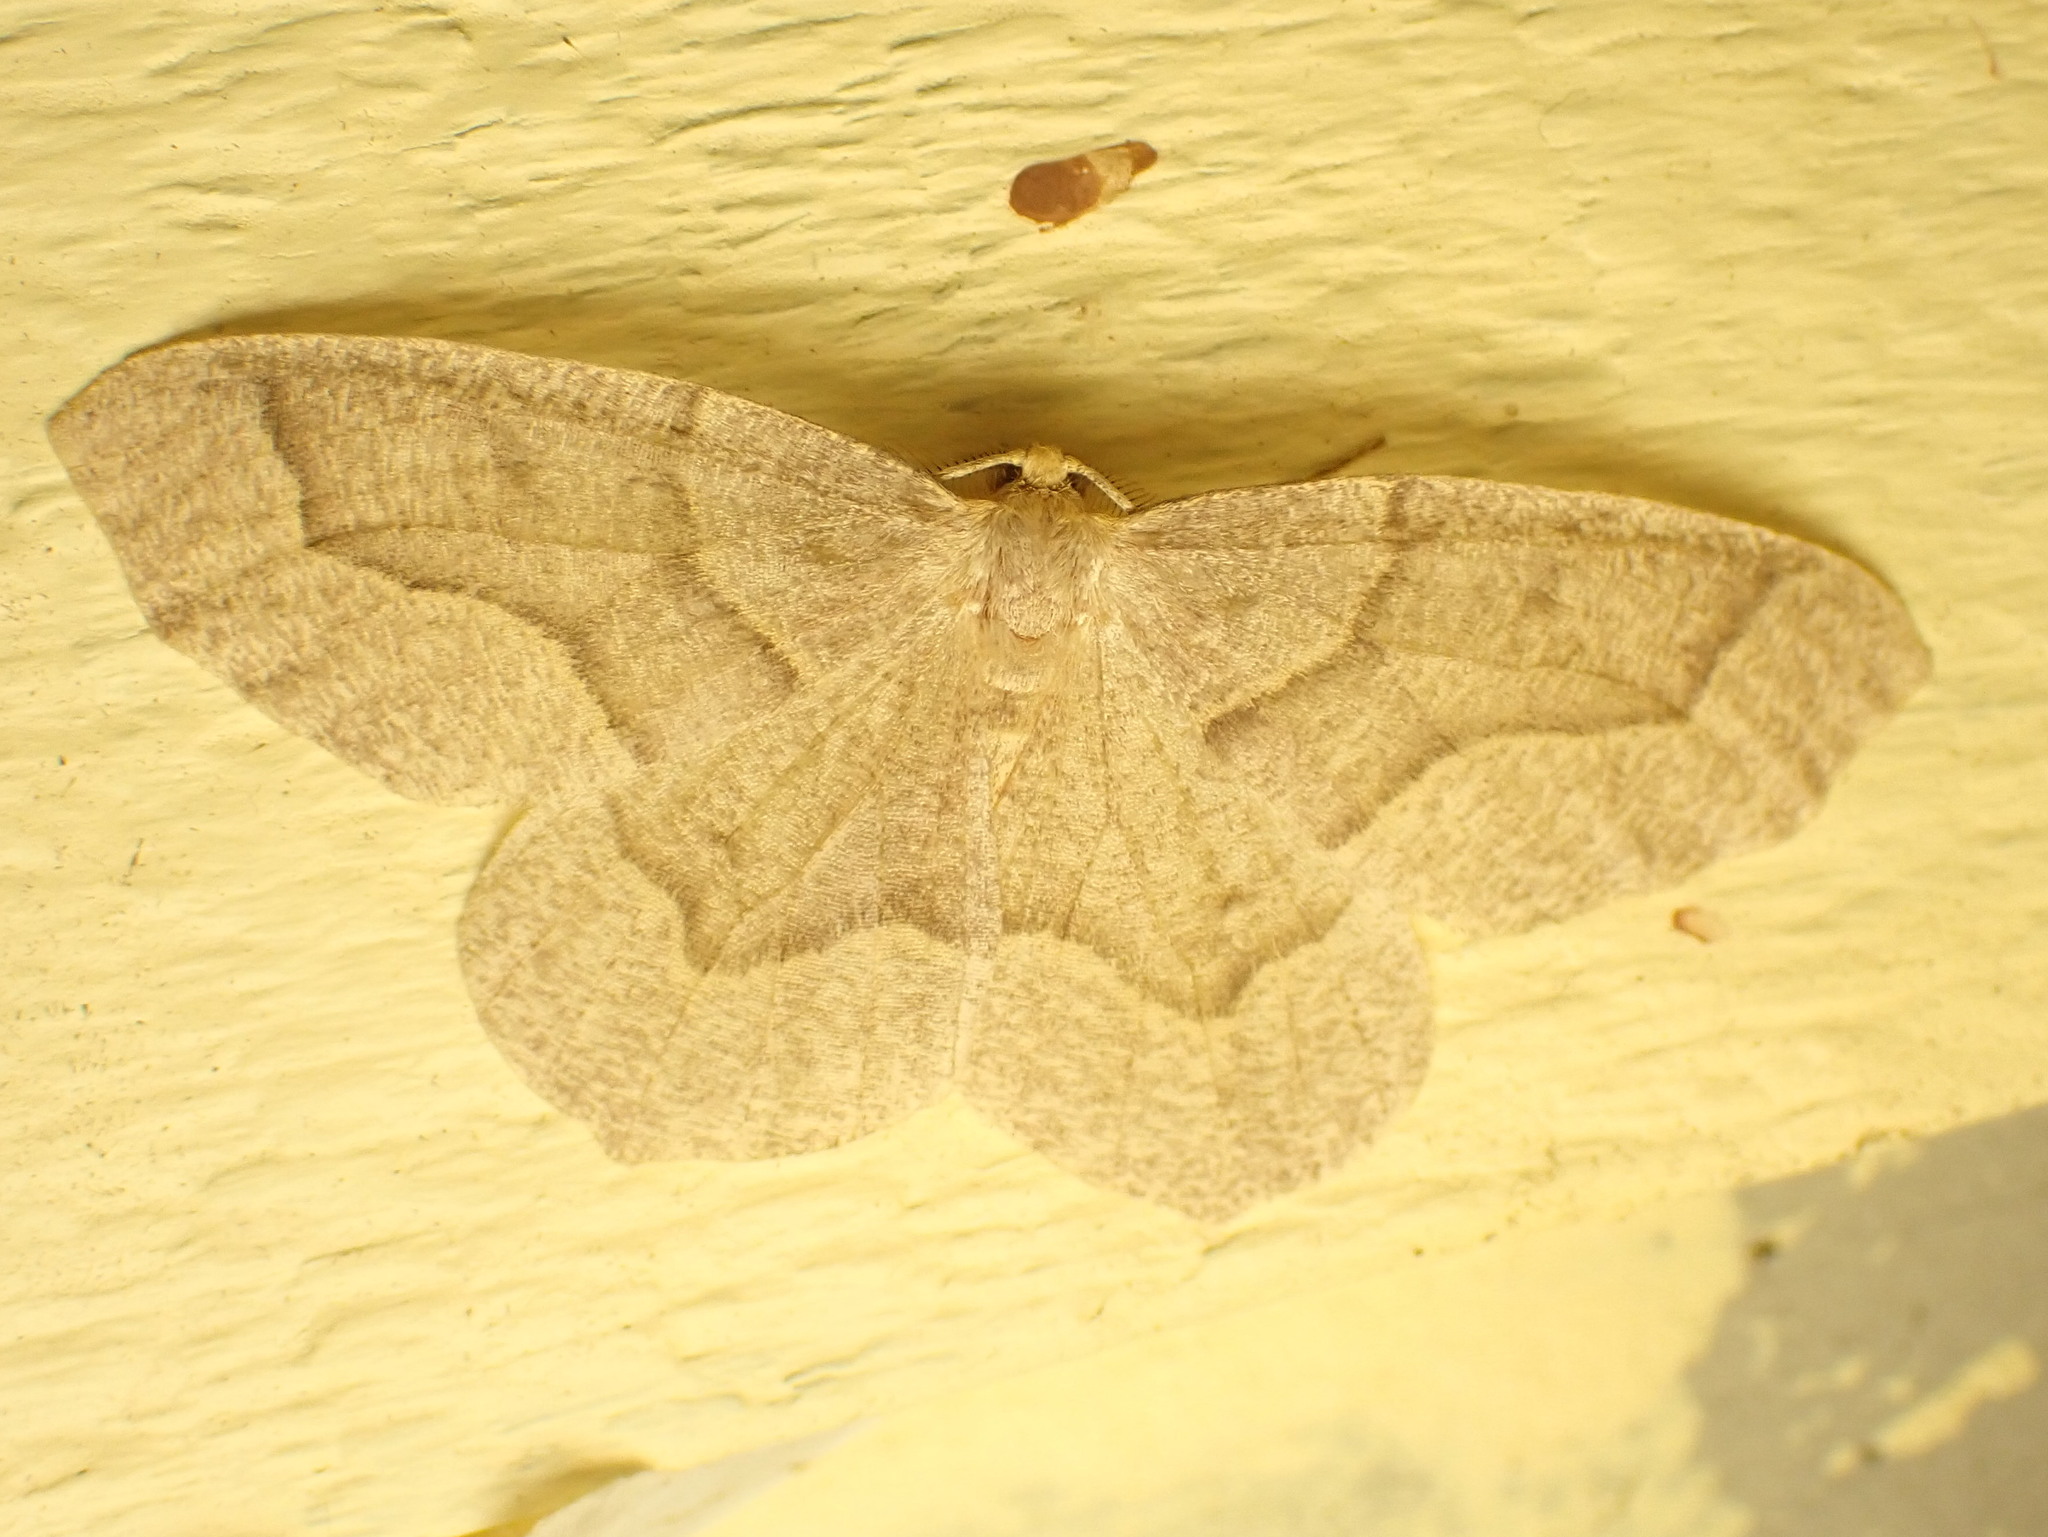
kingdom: Animalia
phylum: Arthropoda
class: Insecta
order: Lepidoptera
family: Geometridae
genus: Lambdina
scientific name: Lambdina fiscellaria
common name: Hemlock looper
